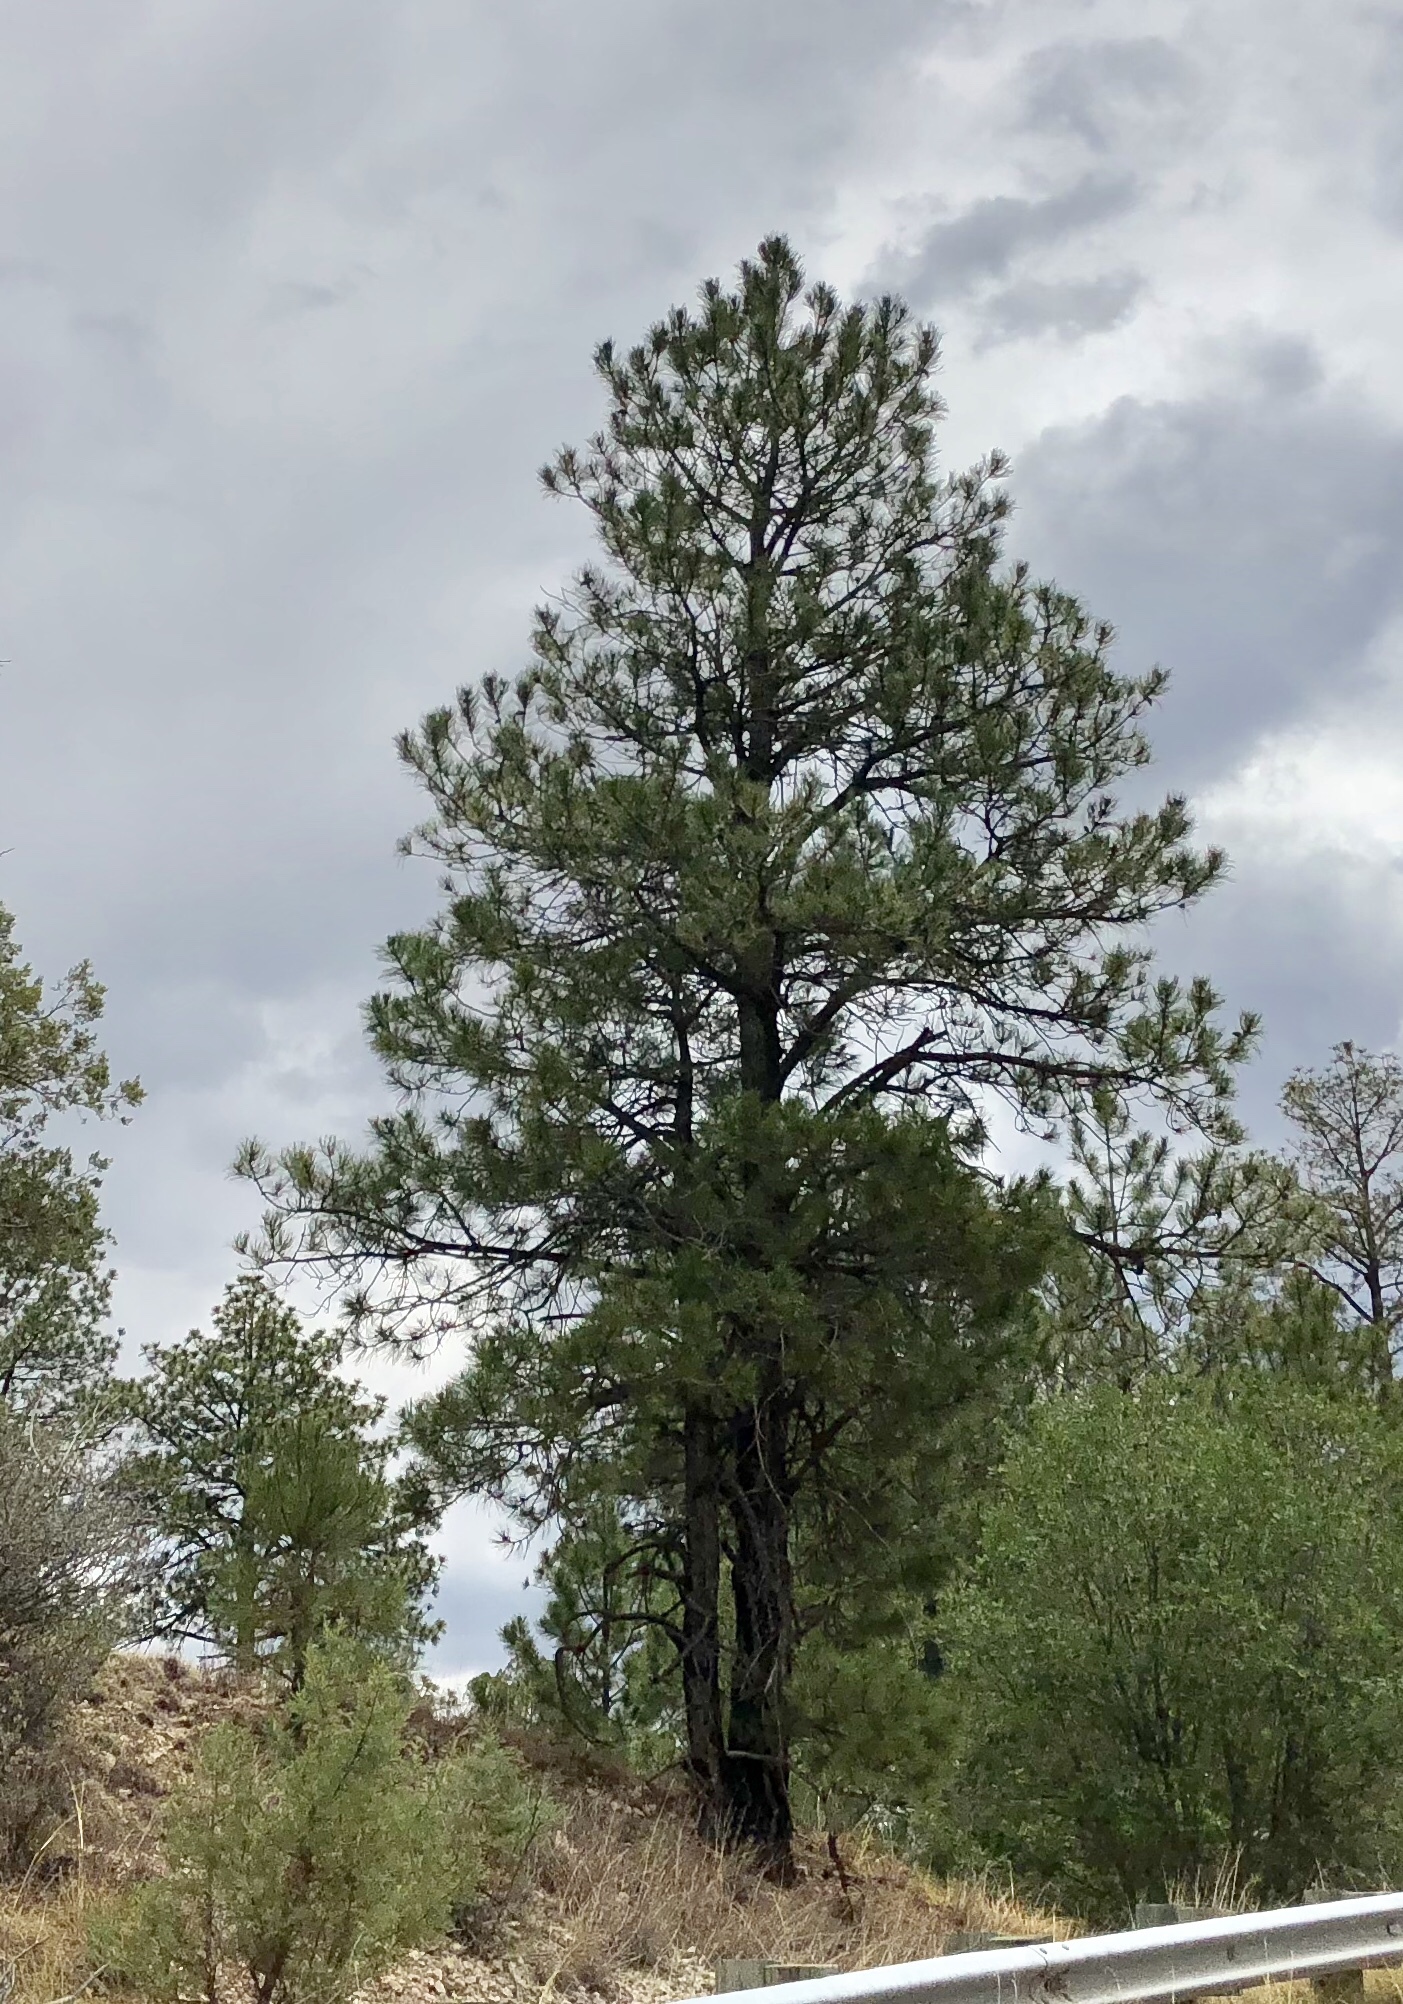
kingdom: Plantae
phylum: Tracheophyta
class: Pinopsida
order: Pinales
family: Pinaceae
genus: Pinus
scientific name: Pinus ponderosa
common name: Western yellow-pine
